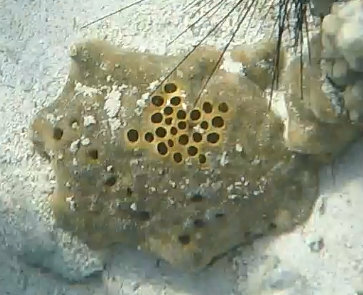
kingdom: Animalia
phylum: Porifera
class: Demospongiae
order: Clionaida
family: Clionaidae
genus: Spheciospongia
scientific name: Spheciospongia inconstans
